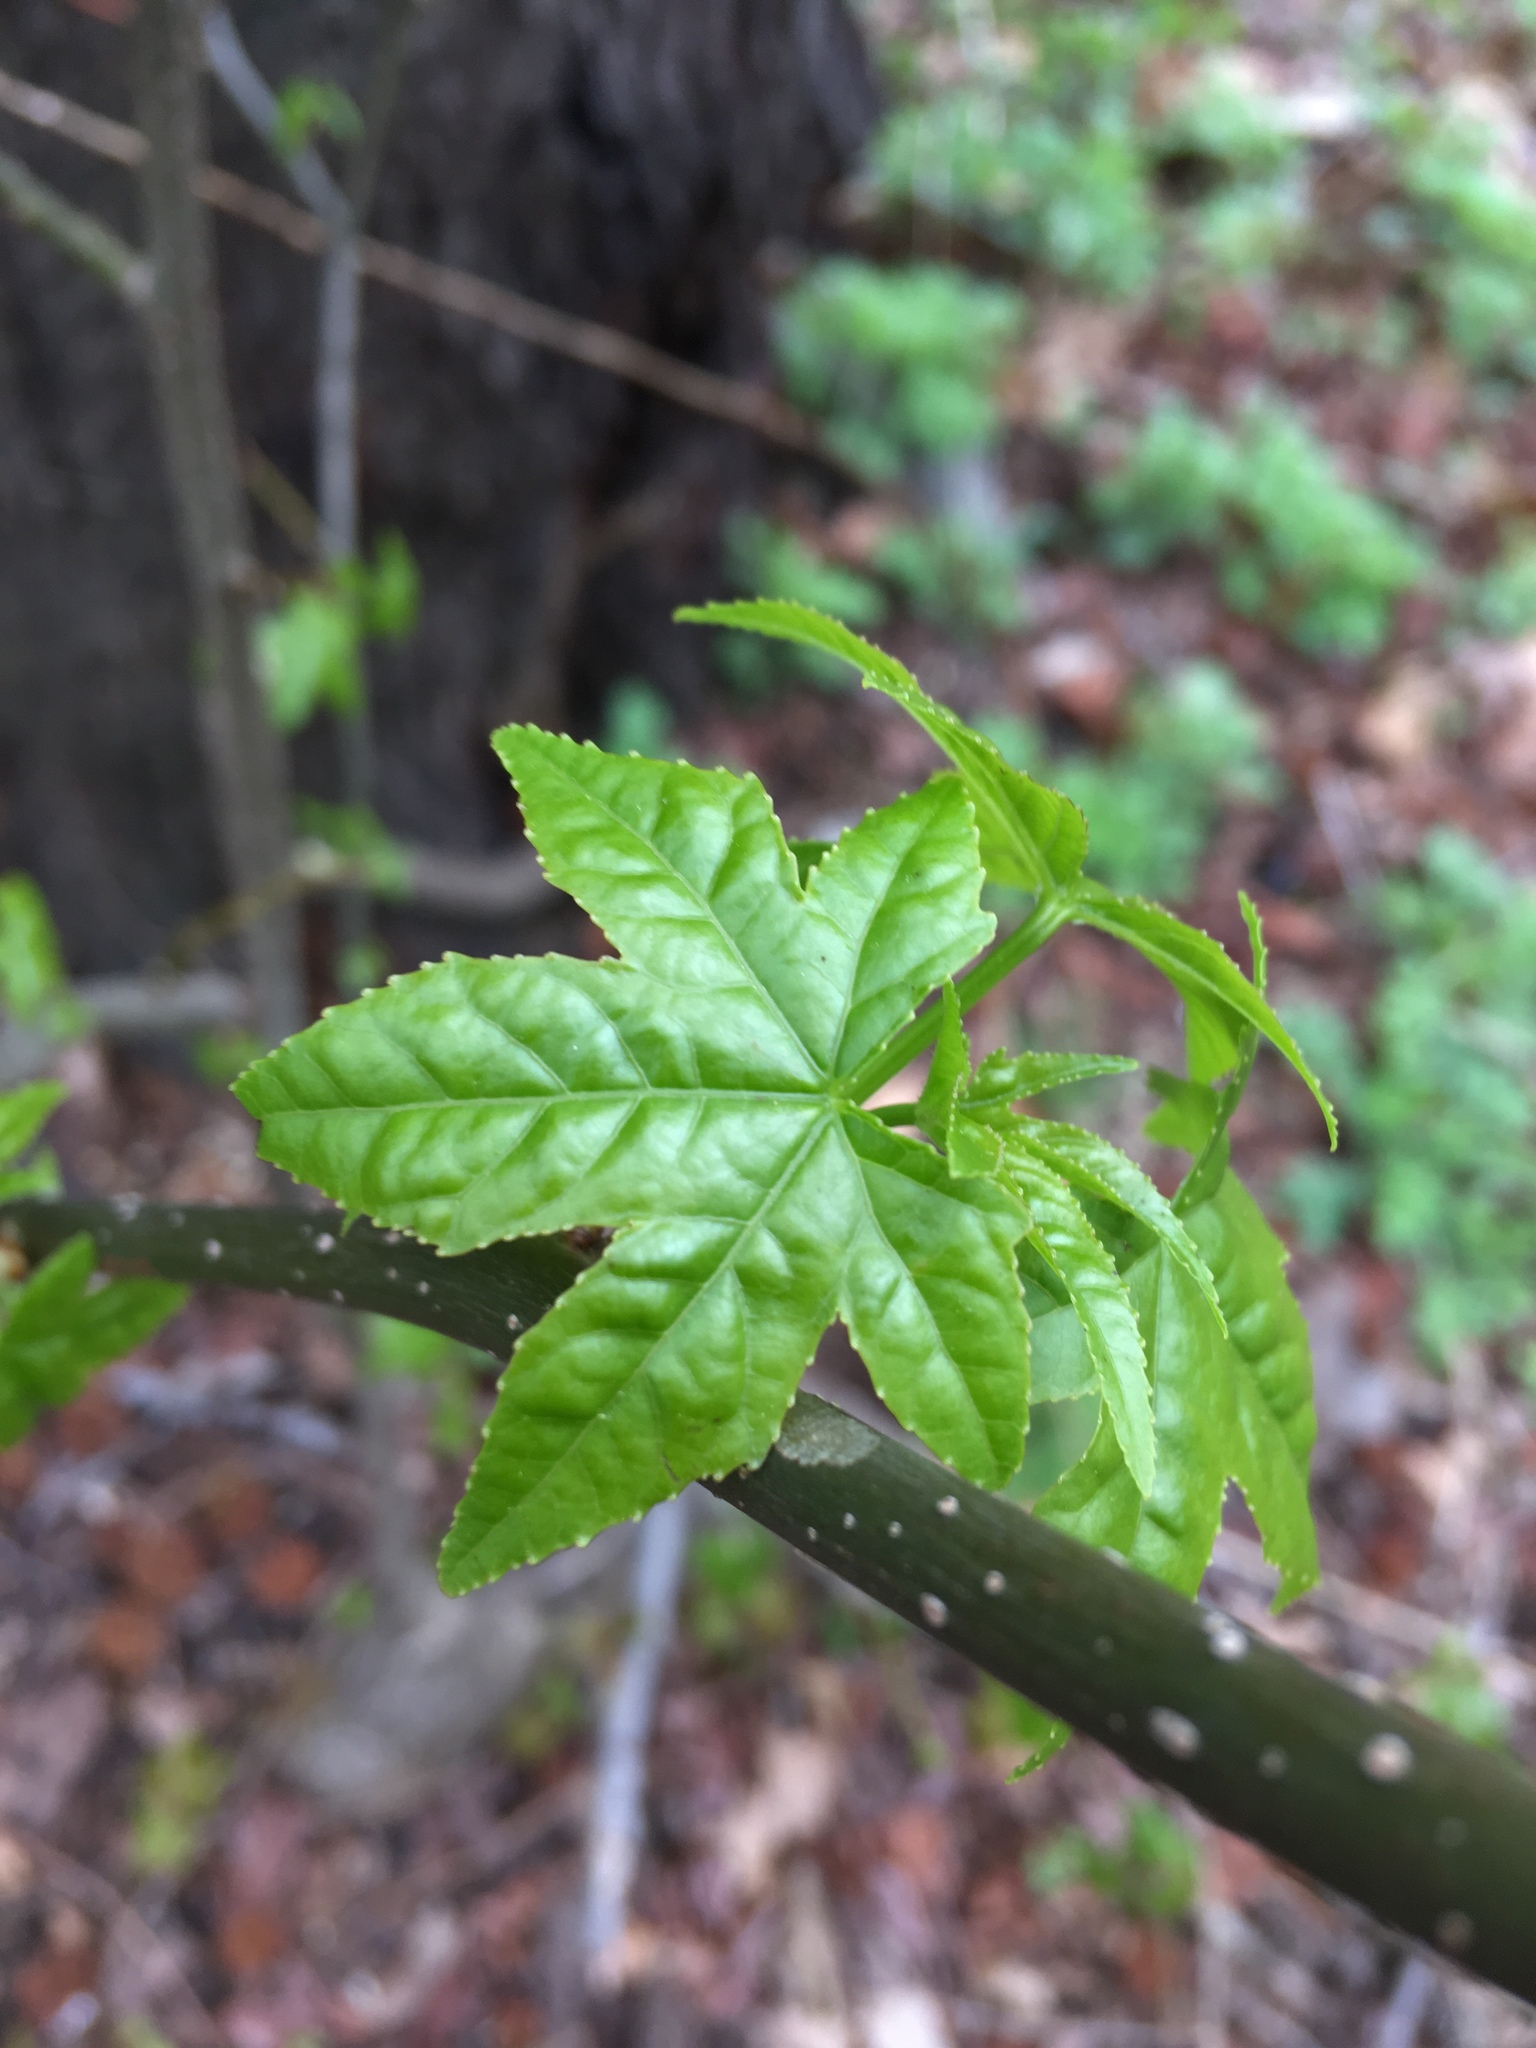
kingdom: Plantae
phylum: Tracheophyta
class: Magnoliopsida
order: Saxifragales
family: Altingiaceae
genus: Liquidambar
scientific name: Liquidambar styraciflua
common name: Sweet gum
